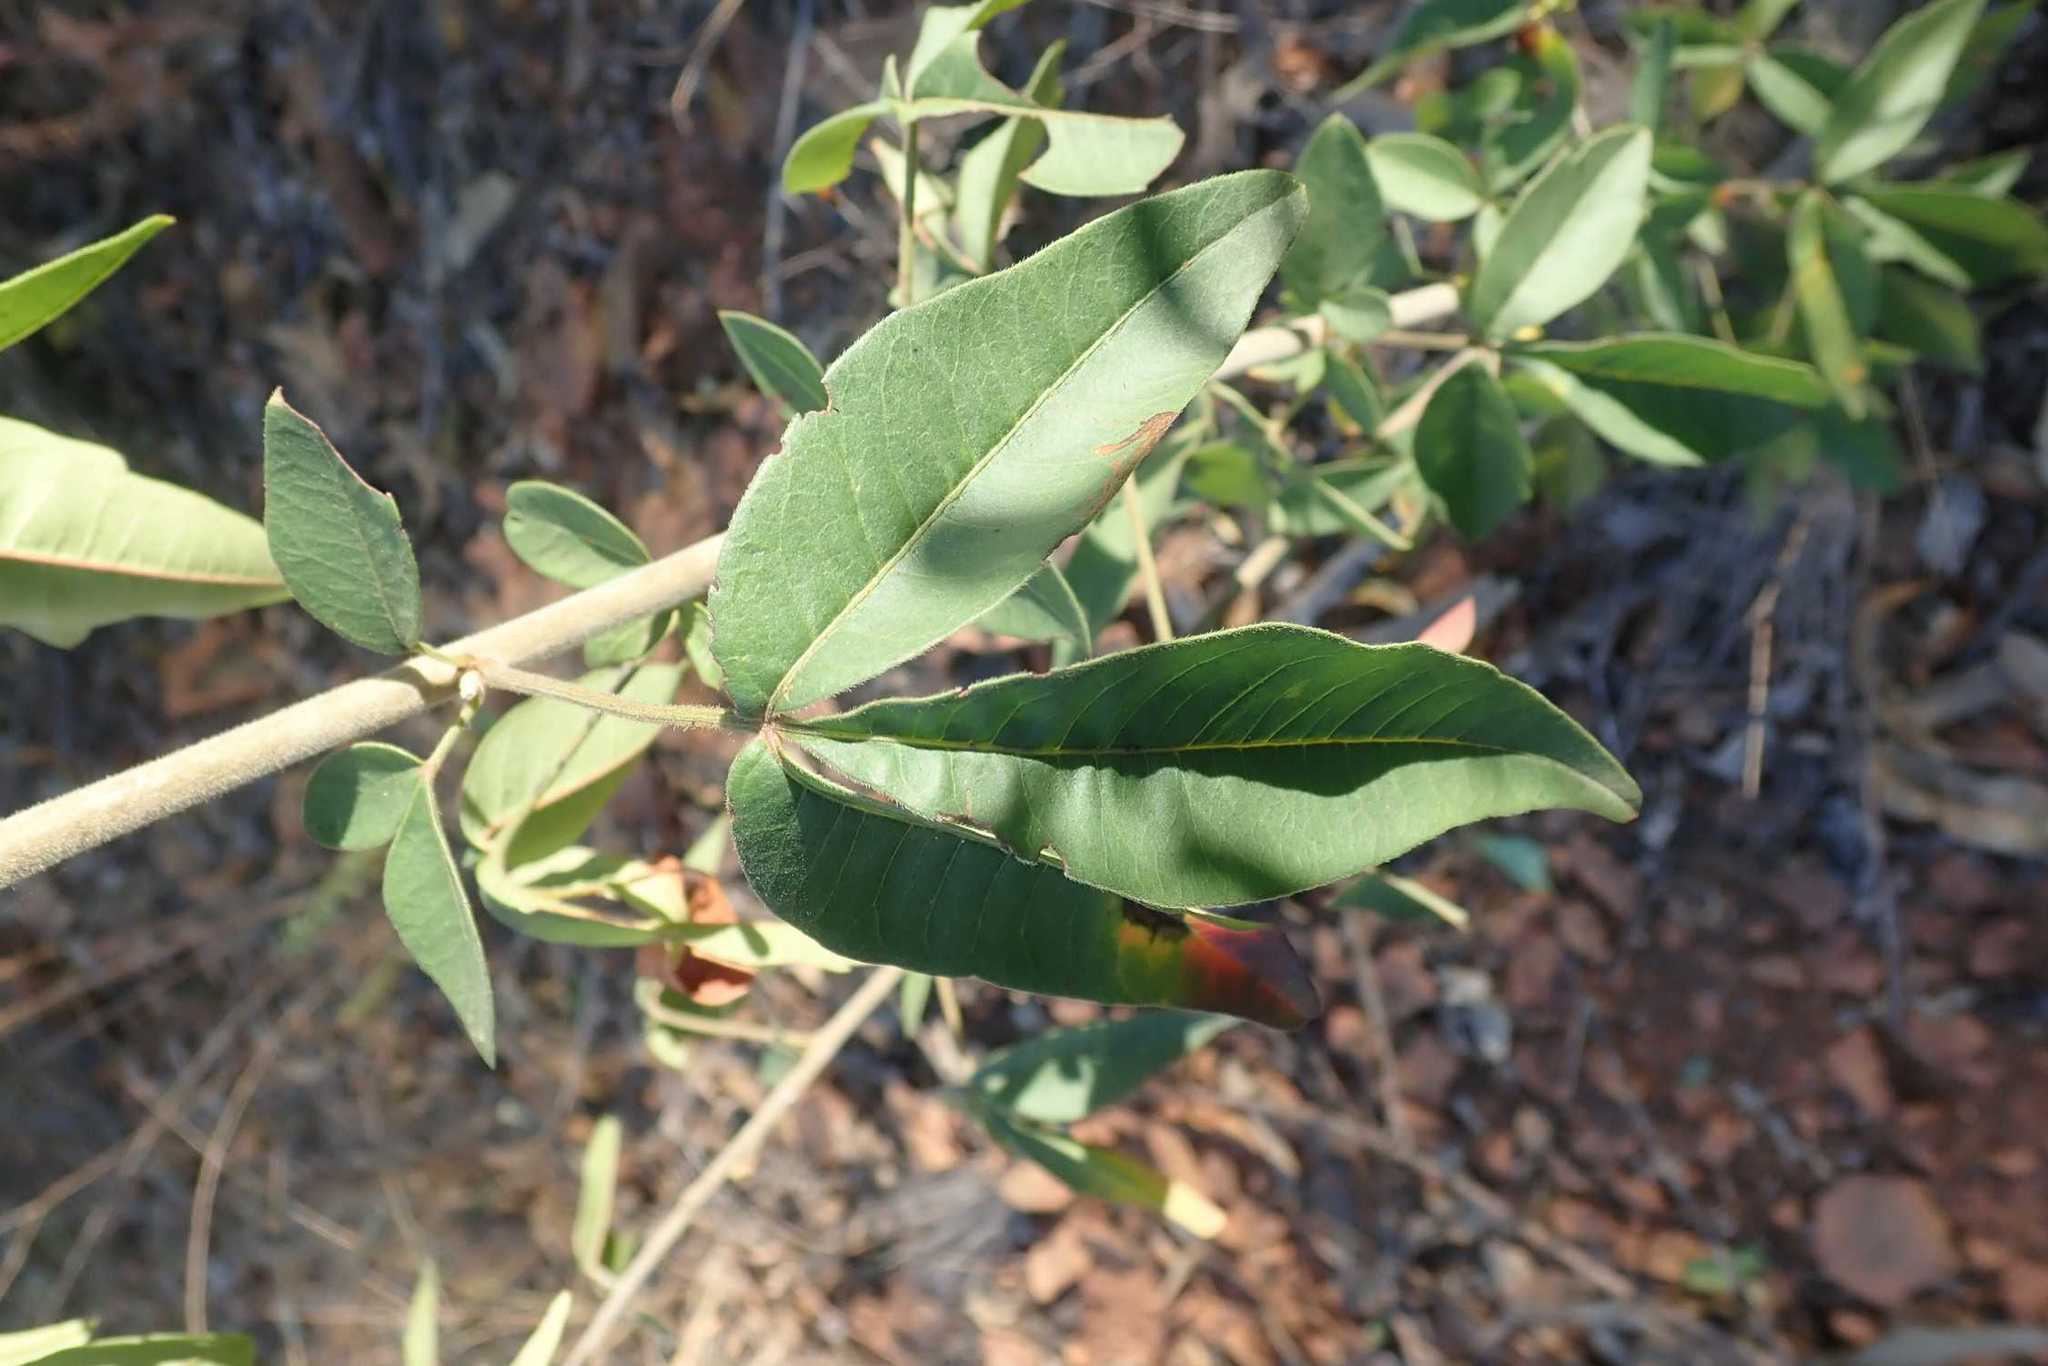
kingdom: Plantae
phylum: Tracheophyta
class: Magnoliopsida
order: Sapindales
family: Anacardiaceae
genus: Searsia
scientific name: Searsia transvaalensis
